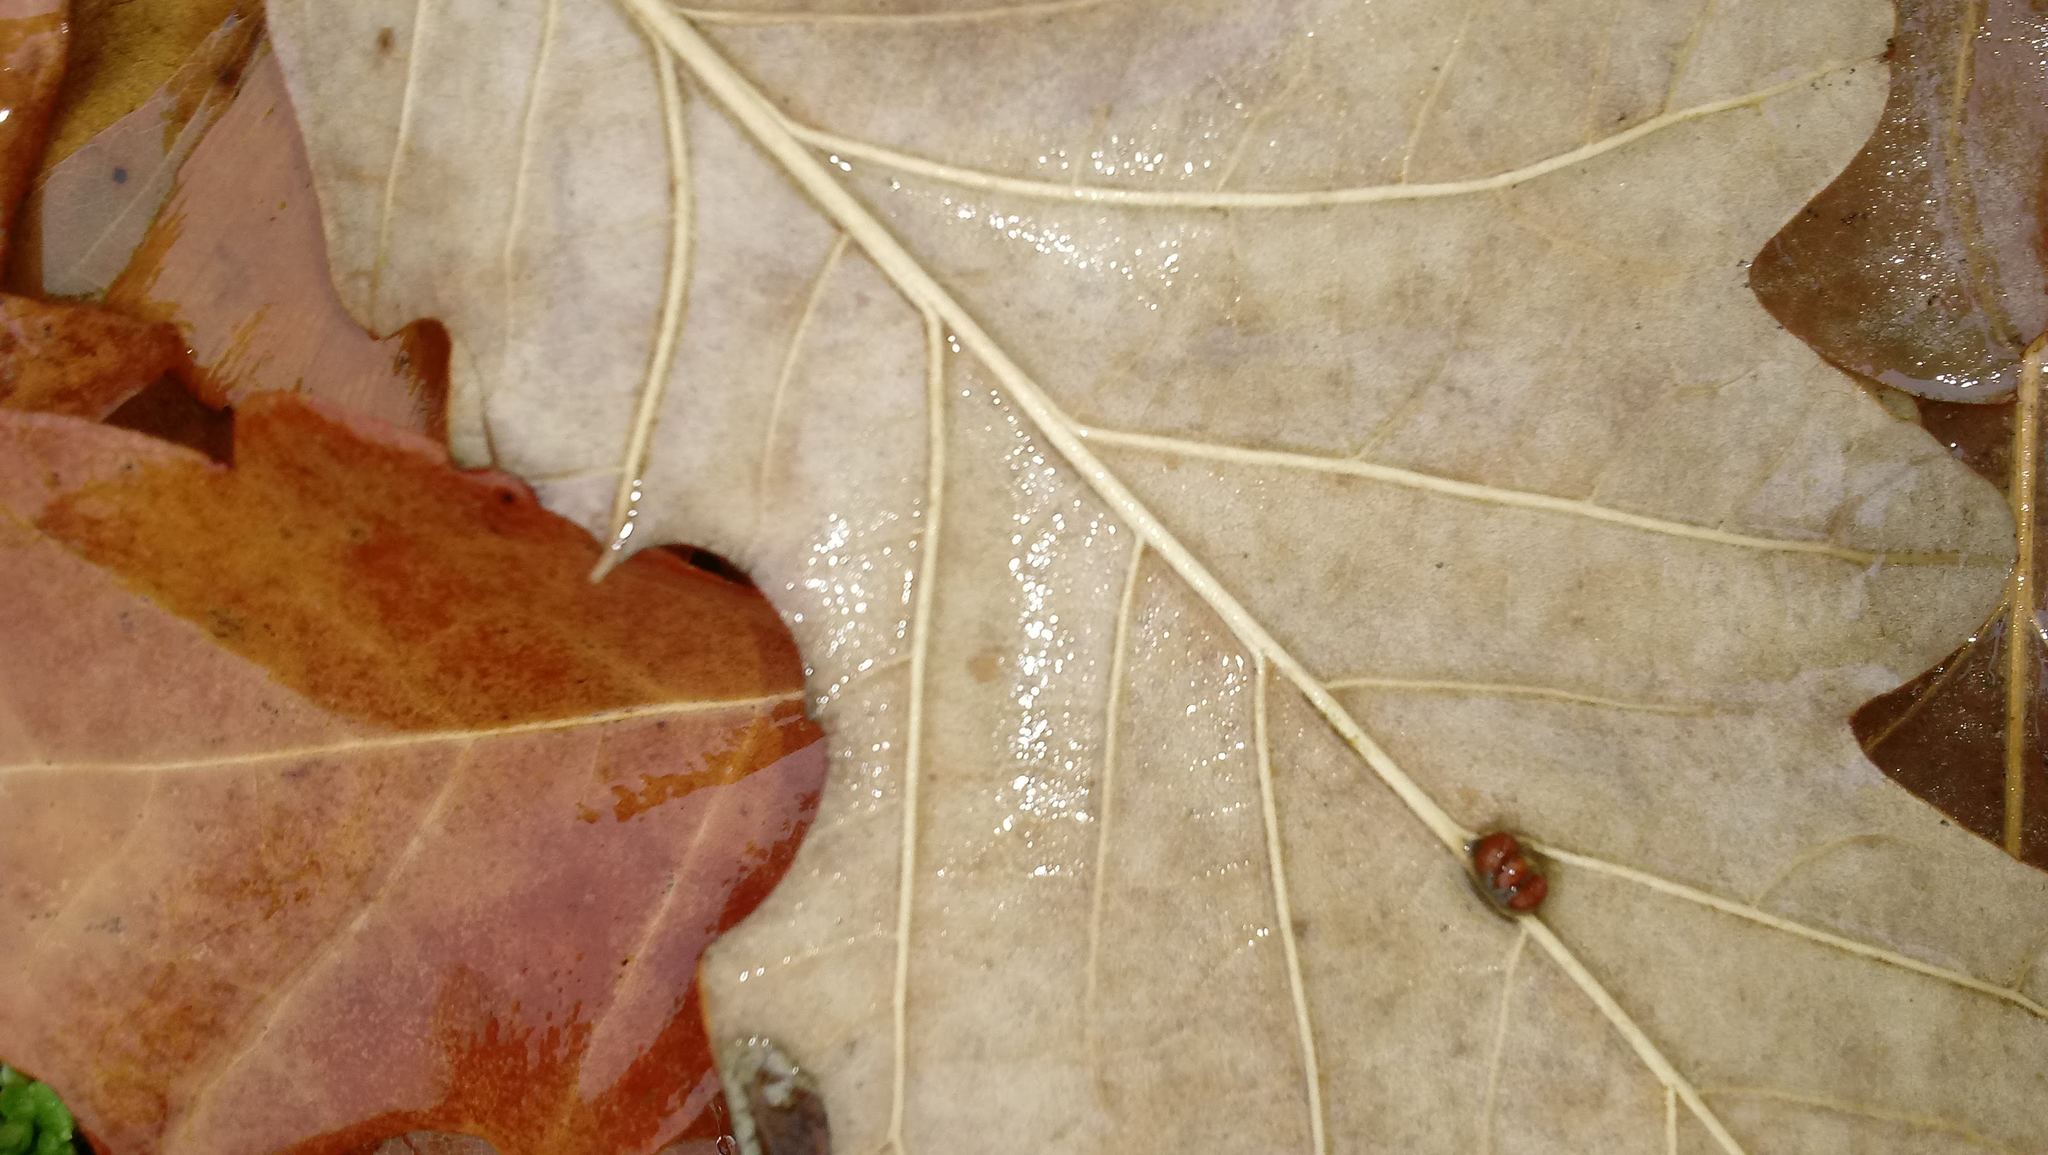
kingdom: Animalia
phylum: Arthropoda
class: Insecta
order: Hymenoptera
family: Cynipidae
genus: Andricus
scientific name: Andricus Druon ignotum
